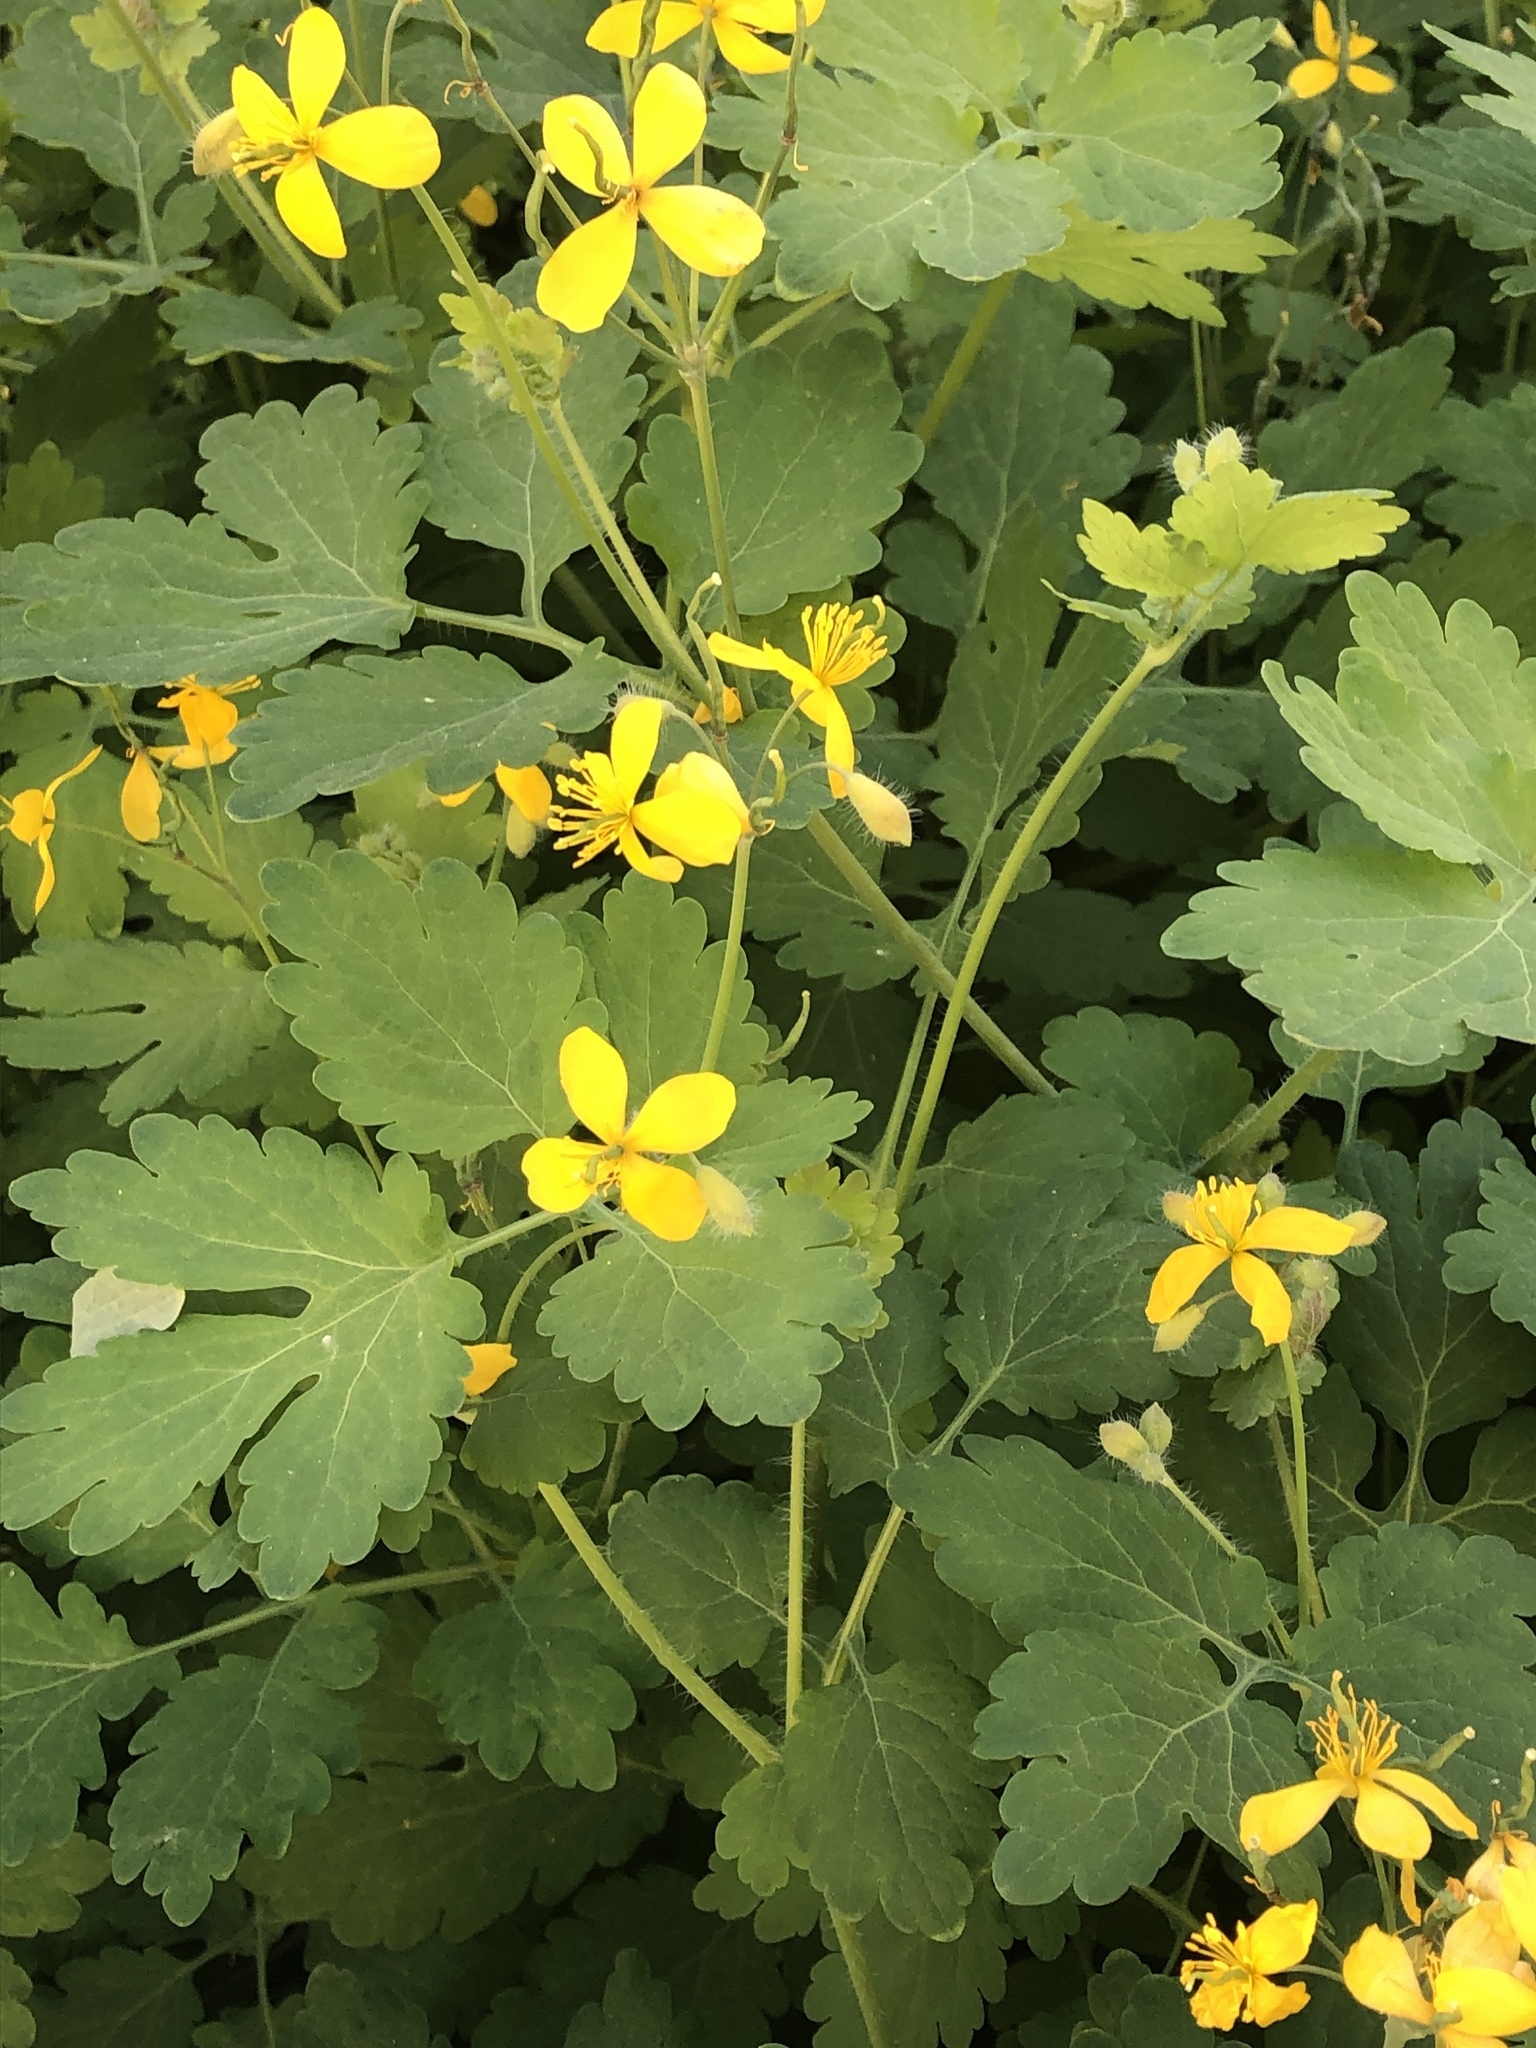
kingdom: Plantae
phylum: Tracheophyta
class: Magnoliopsida
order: Ranunculales
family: Papaveraceae
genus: Chelidonium
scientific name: Chelidonium majus
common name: Greater celandine
